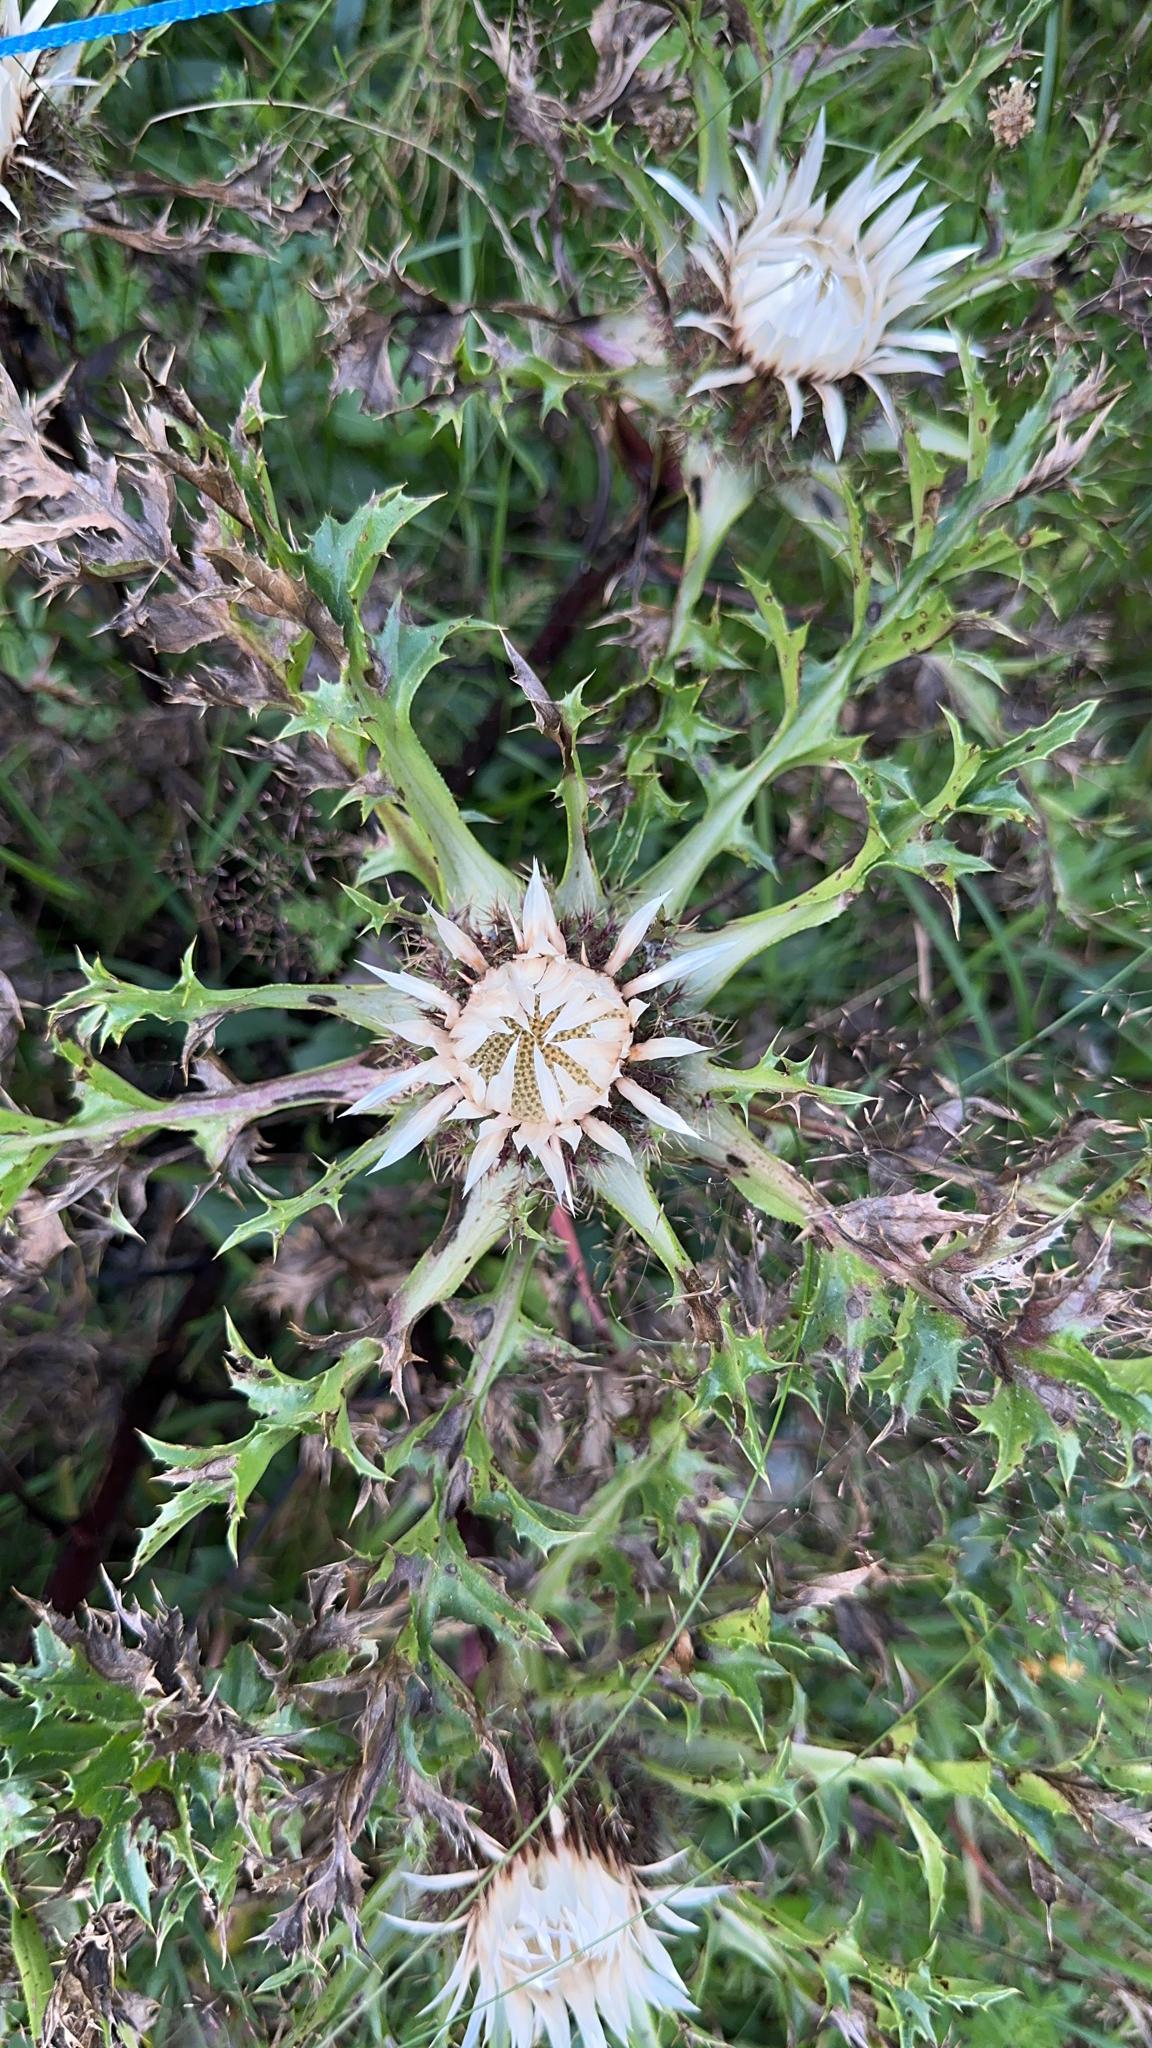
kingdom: Plantae
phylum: Tracheophyta
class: Magnoliopsida
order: Asterales
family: Asteraceae
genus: Carlina
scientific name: Carlina acaulis
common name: Stemless carline thistle
